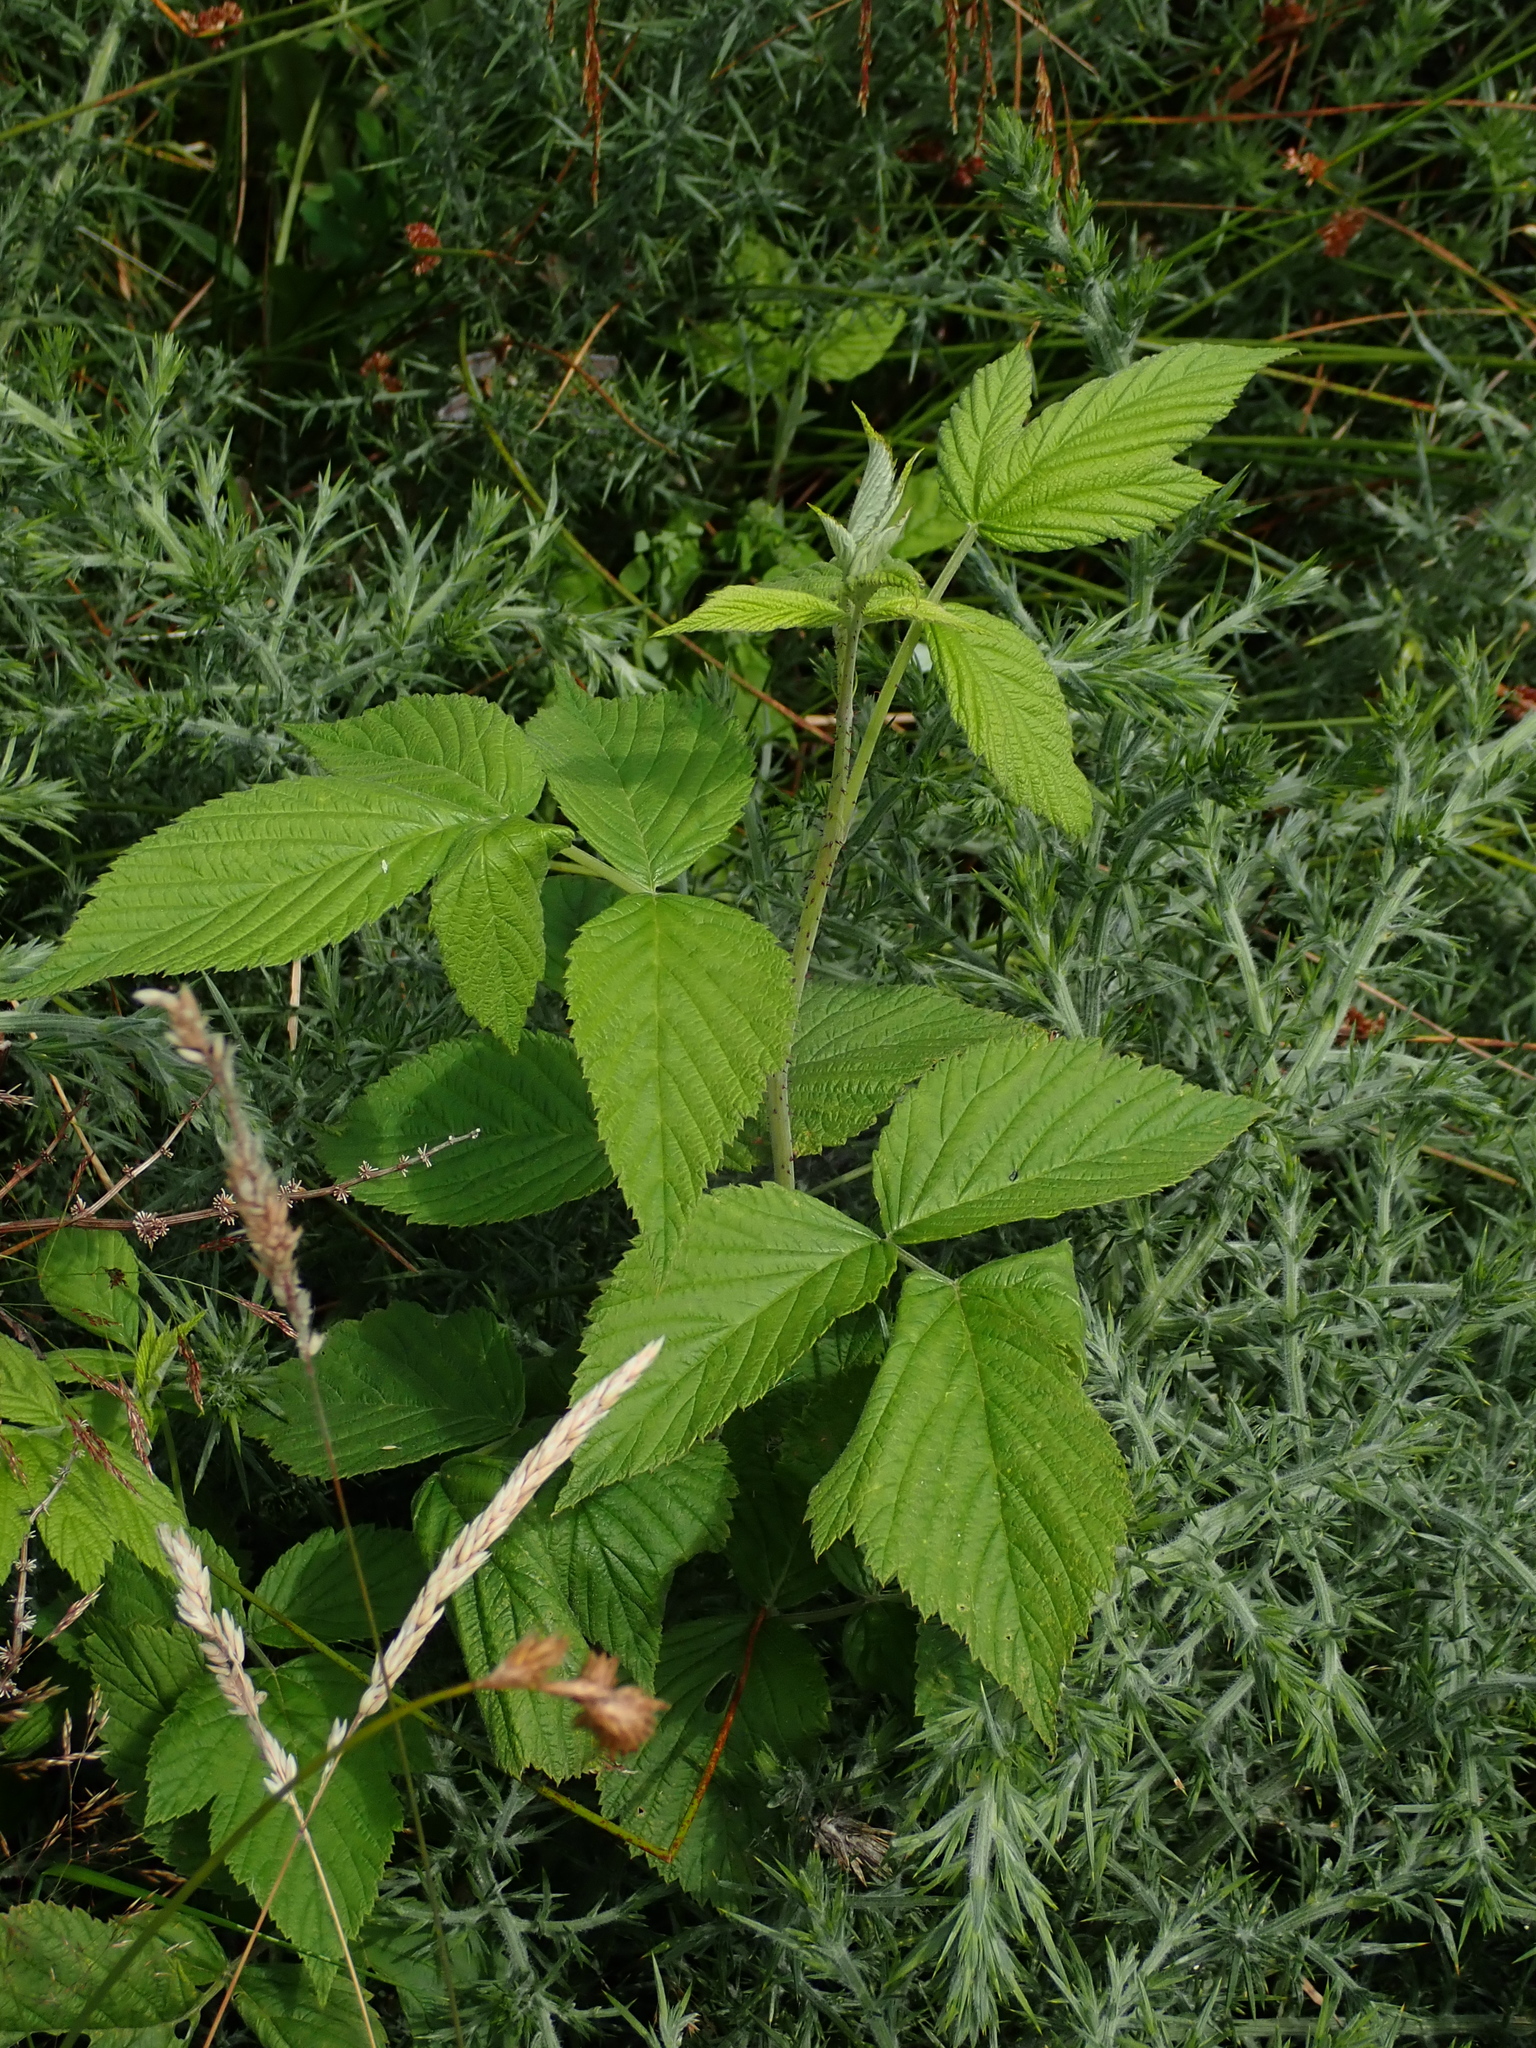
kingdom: Plantae
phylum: Tracheophyta
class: Magnoliopsida
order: Rosales
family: Rosaceae
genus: Rubus
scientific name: Rubus idaeus
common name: Raspberry
